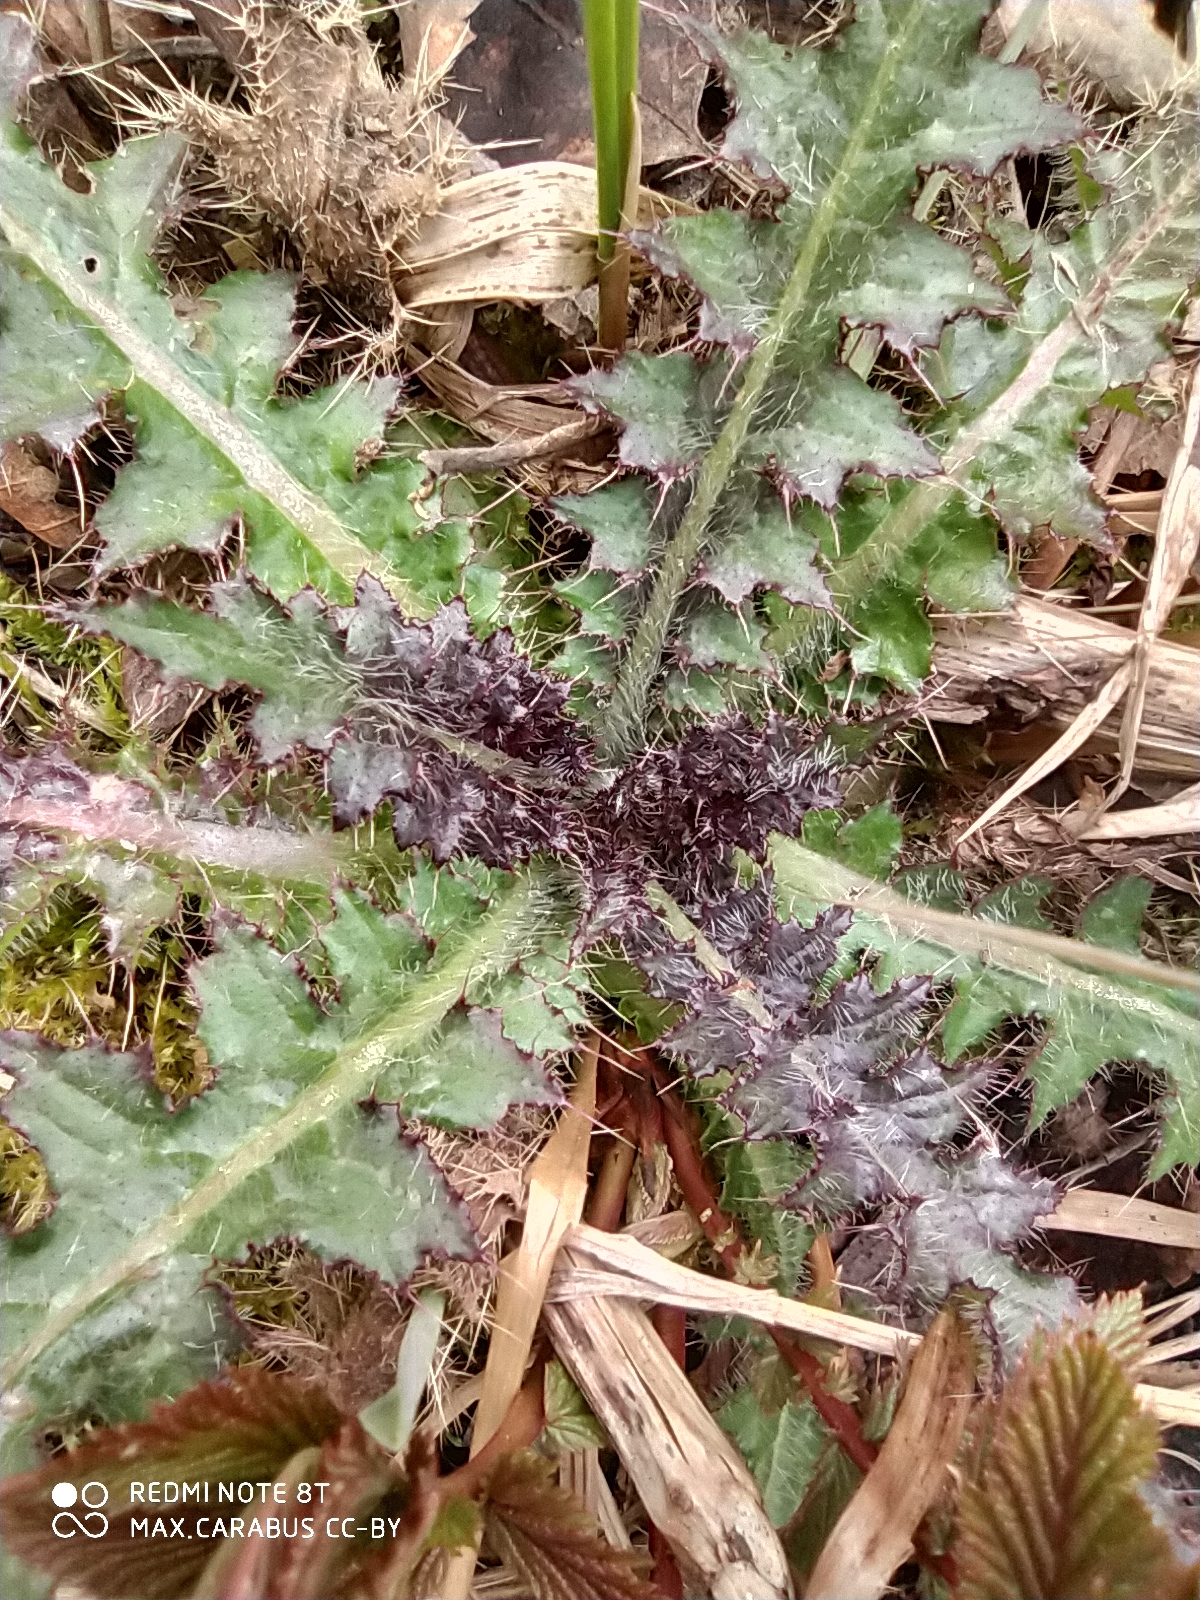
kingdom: Plantae
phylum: Tracheophyta
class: Magnoliopsida
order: Asterales
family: Asteraceae
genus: Cirsium
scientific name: Cirsium palustre
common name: Marsh thistle
